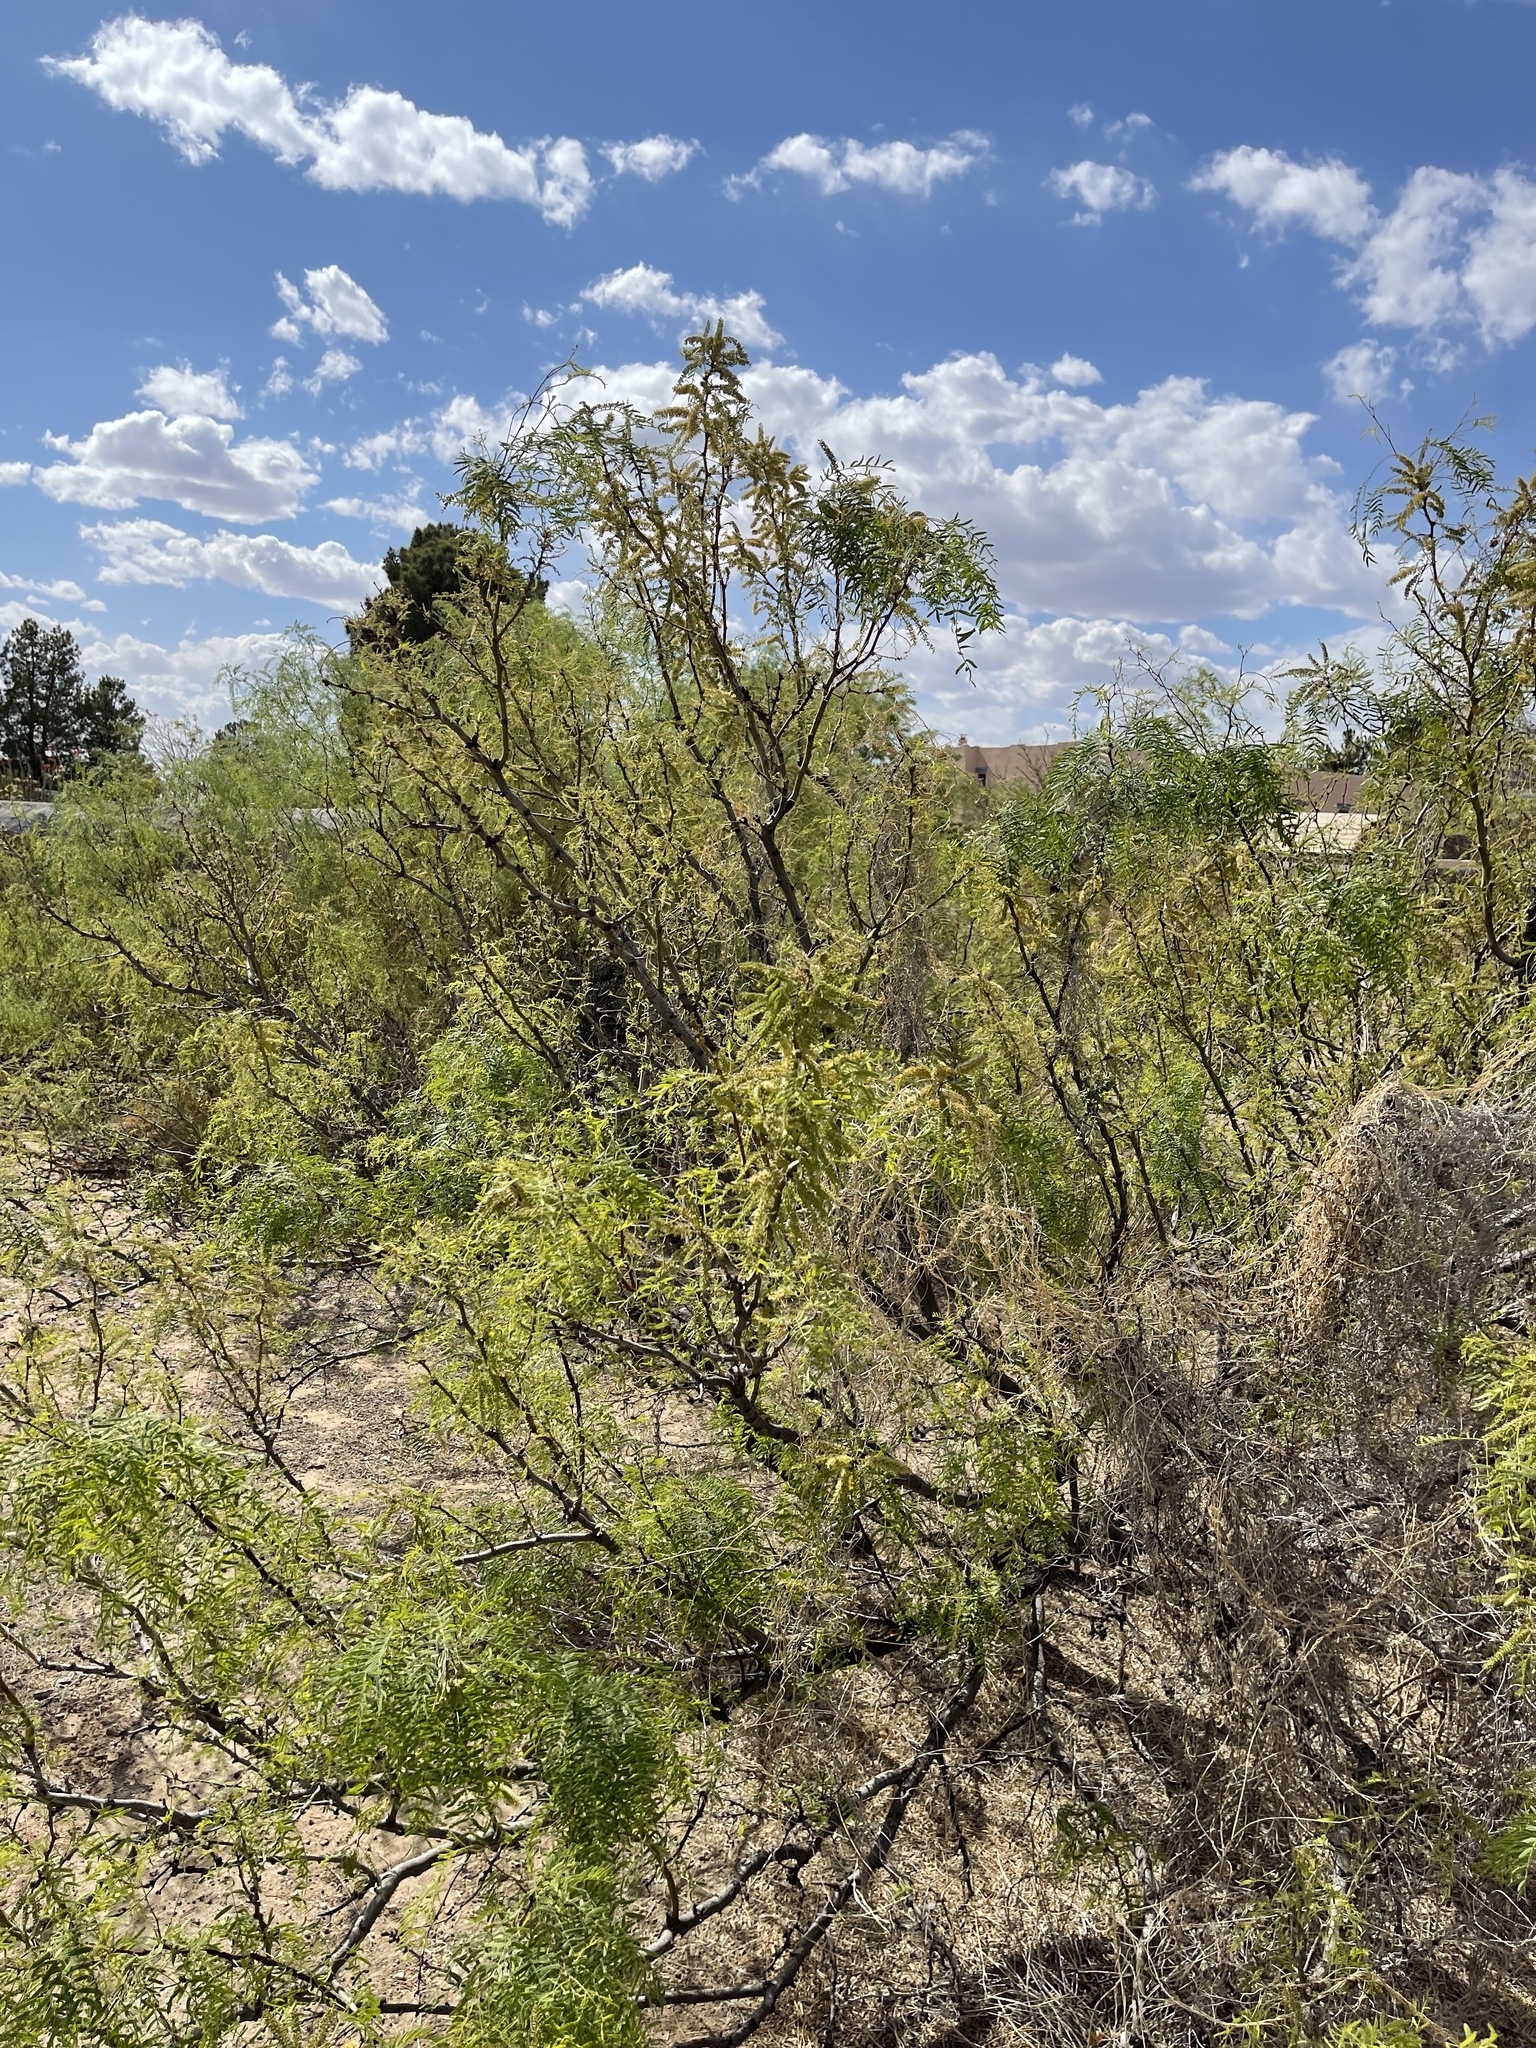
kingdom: Plantae
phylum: Tracheophyta
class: Magnoliopsida
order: Fabales
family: Fabaceae
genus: Prosopis
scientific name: Prosopis glandulosa
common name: Honey mesquite
